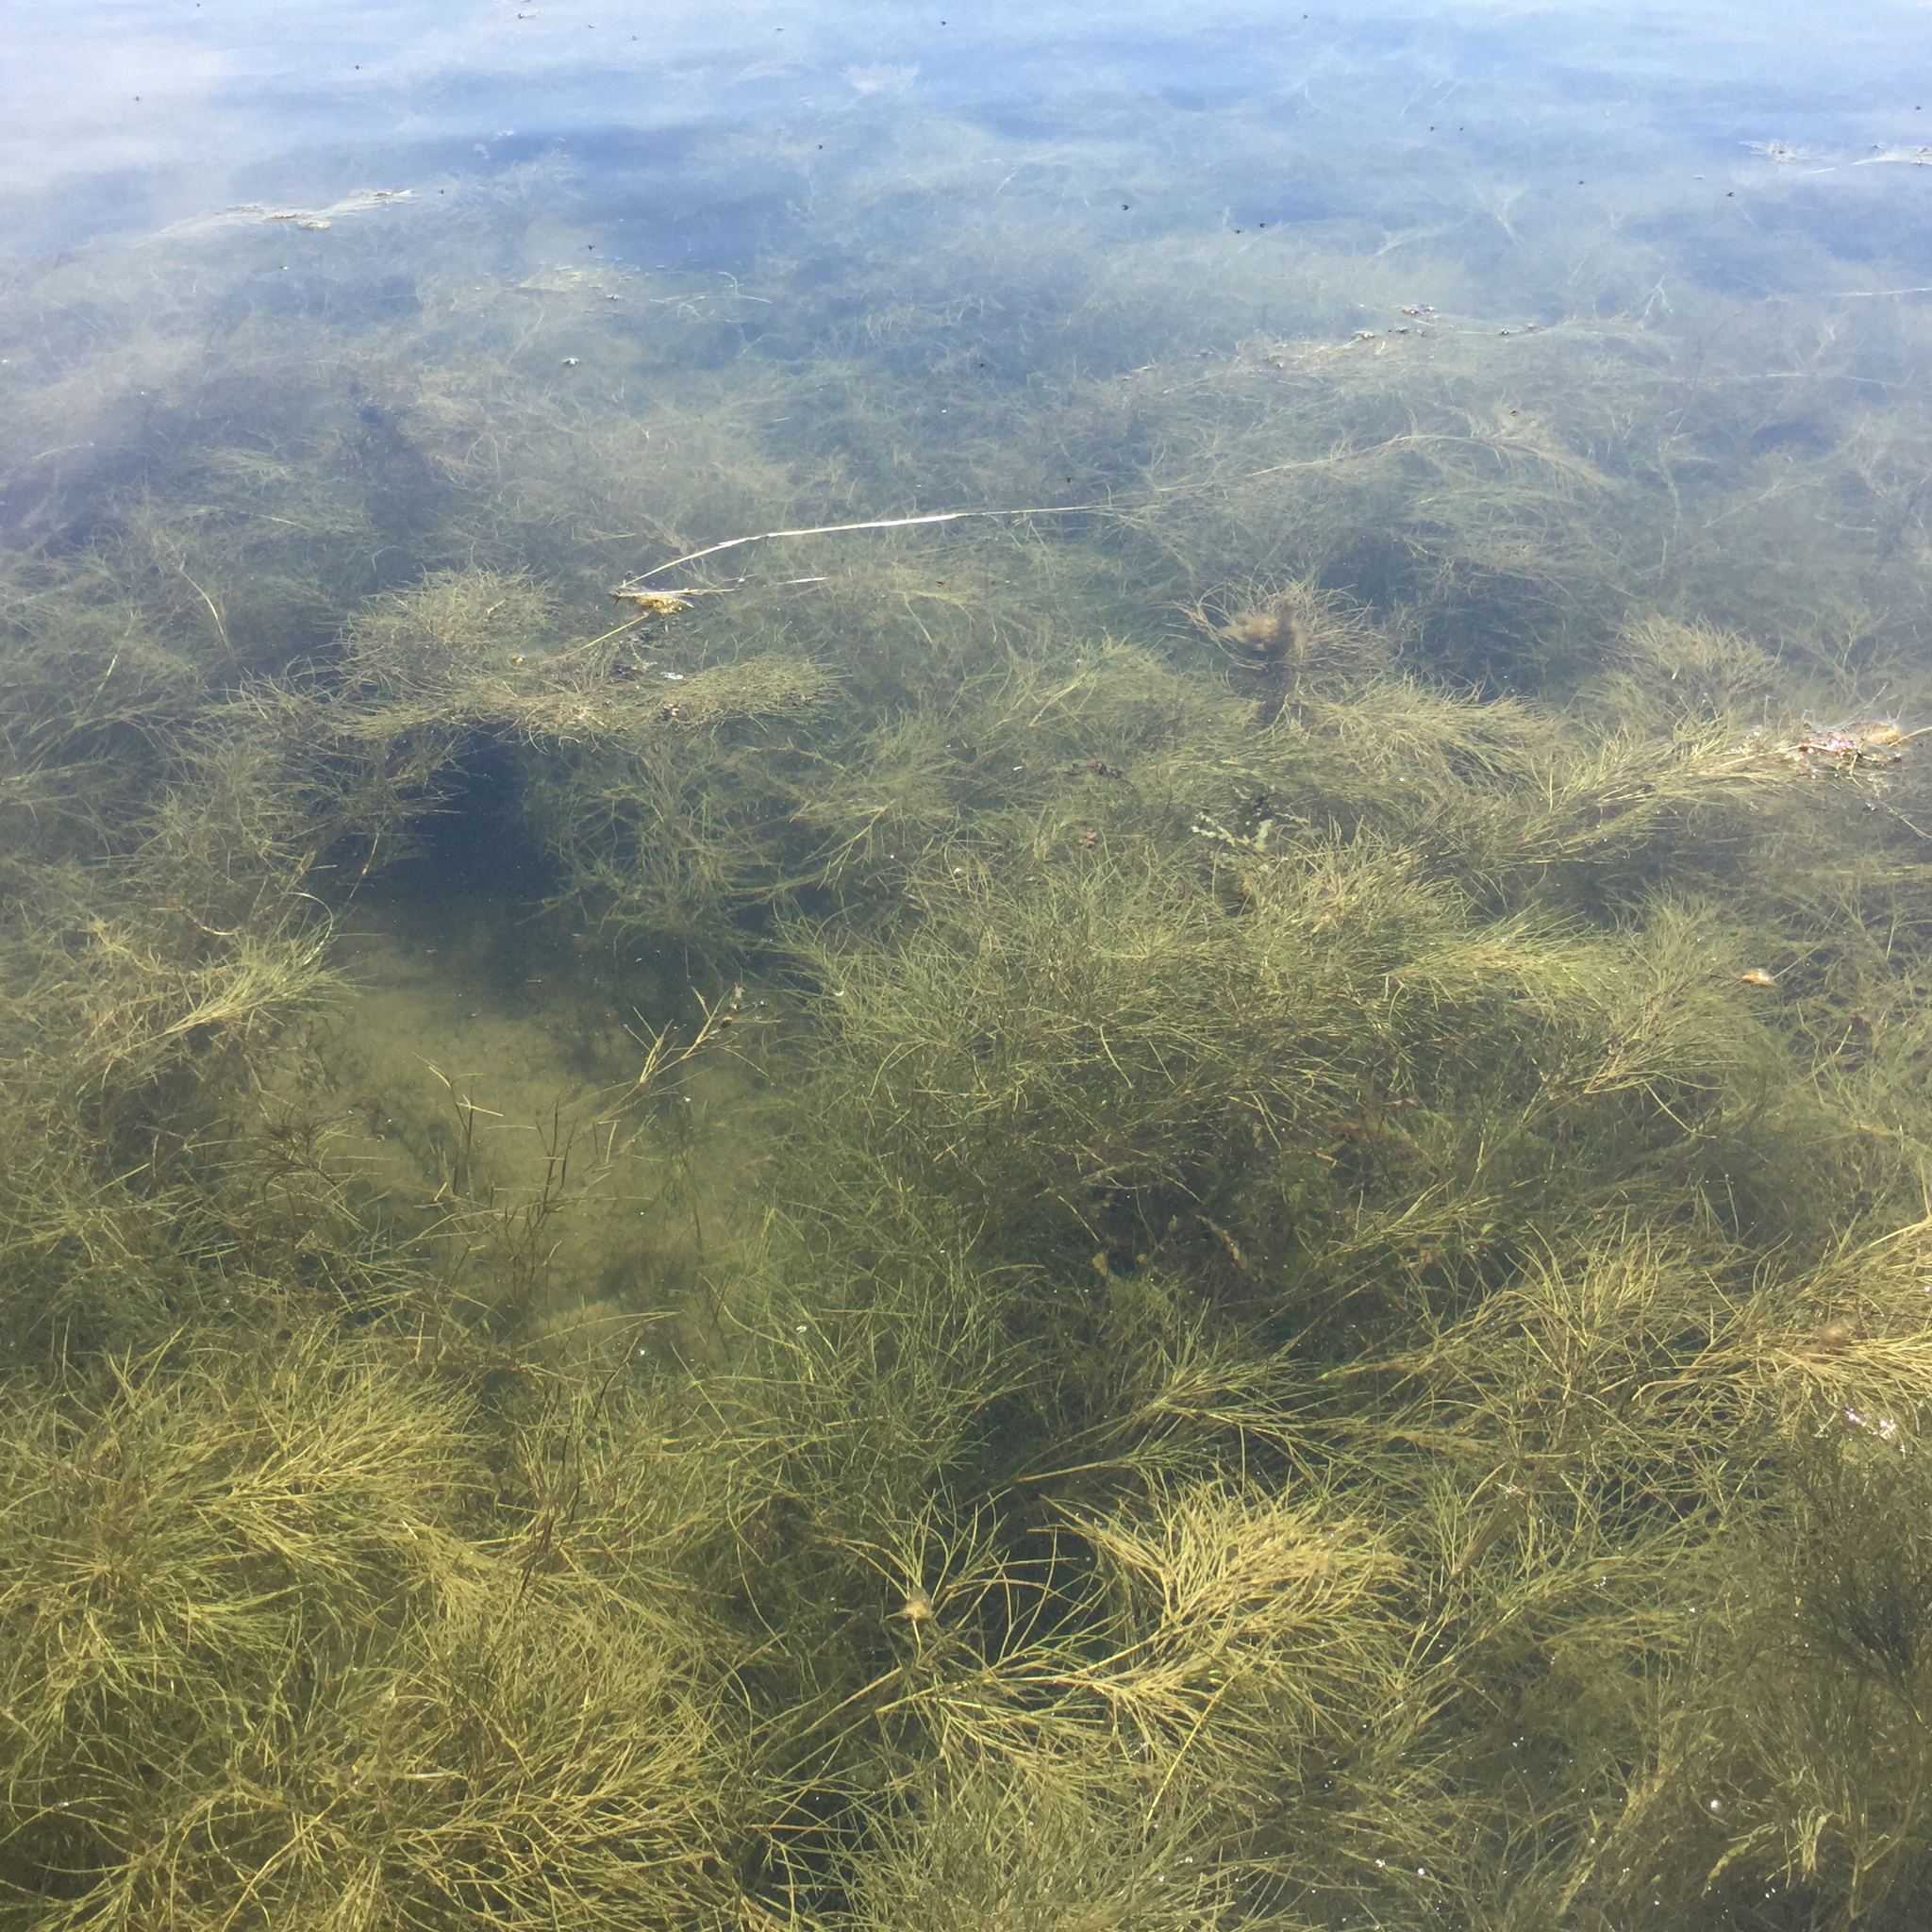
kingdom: Plantae
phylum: Tracheophyta
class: Liliopsida
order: Alismatales
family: Potamogetonaceae
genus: Stuckenia
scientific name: Stuckenia pectinata
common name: Sago pondweed
